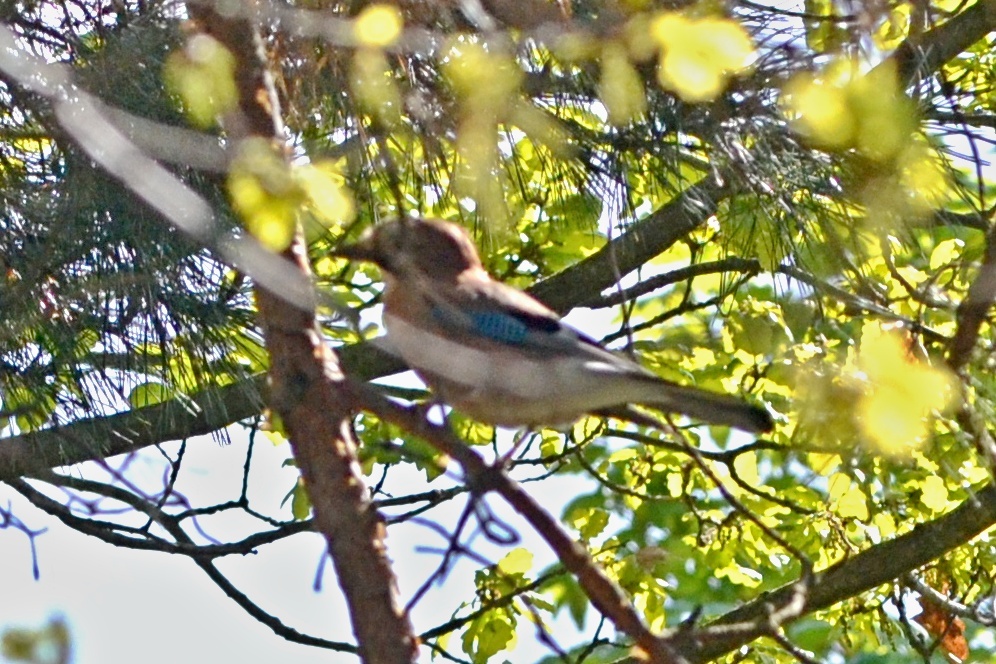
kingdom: Animalia
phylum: Chordata
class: Aves
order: Passeriformes
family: Corvidae
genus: Garrulus
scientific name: Garrulus glandarius
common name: Eurasian jay
